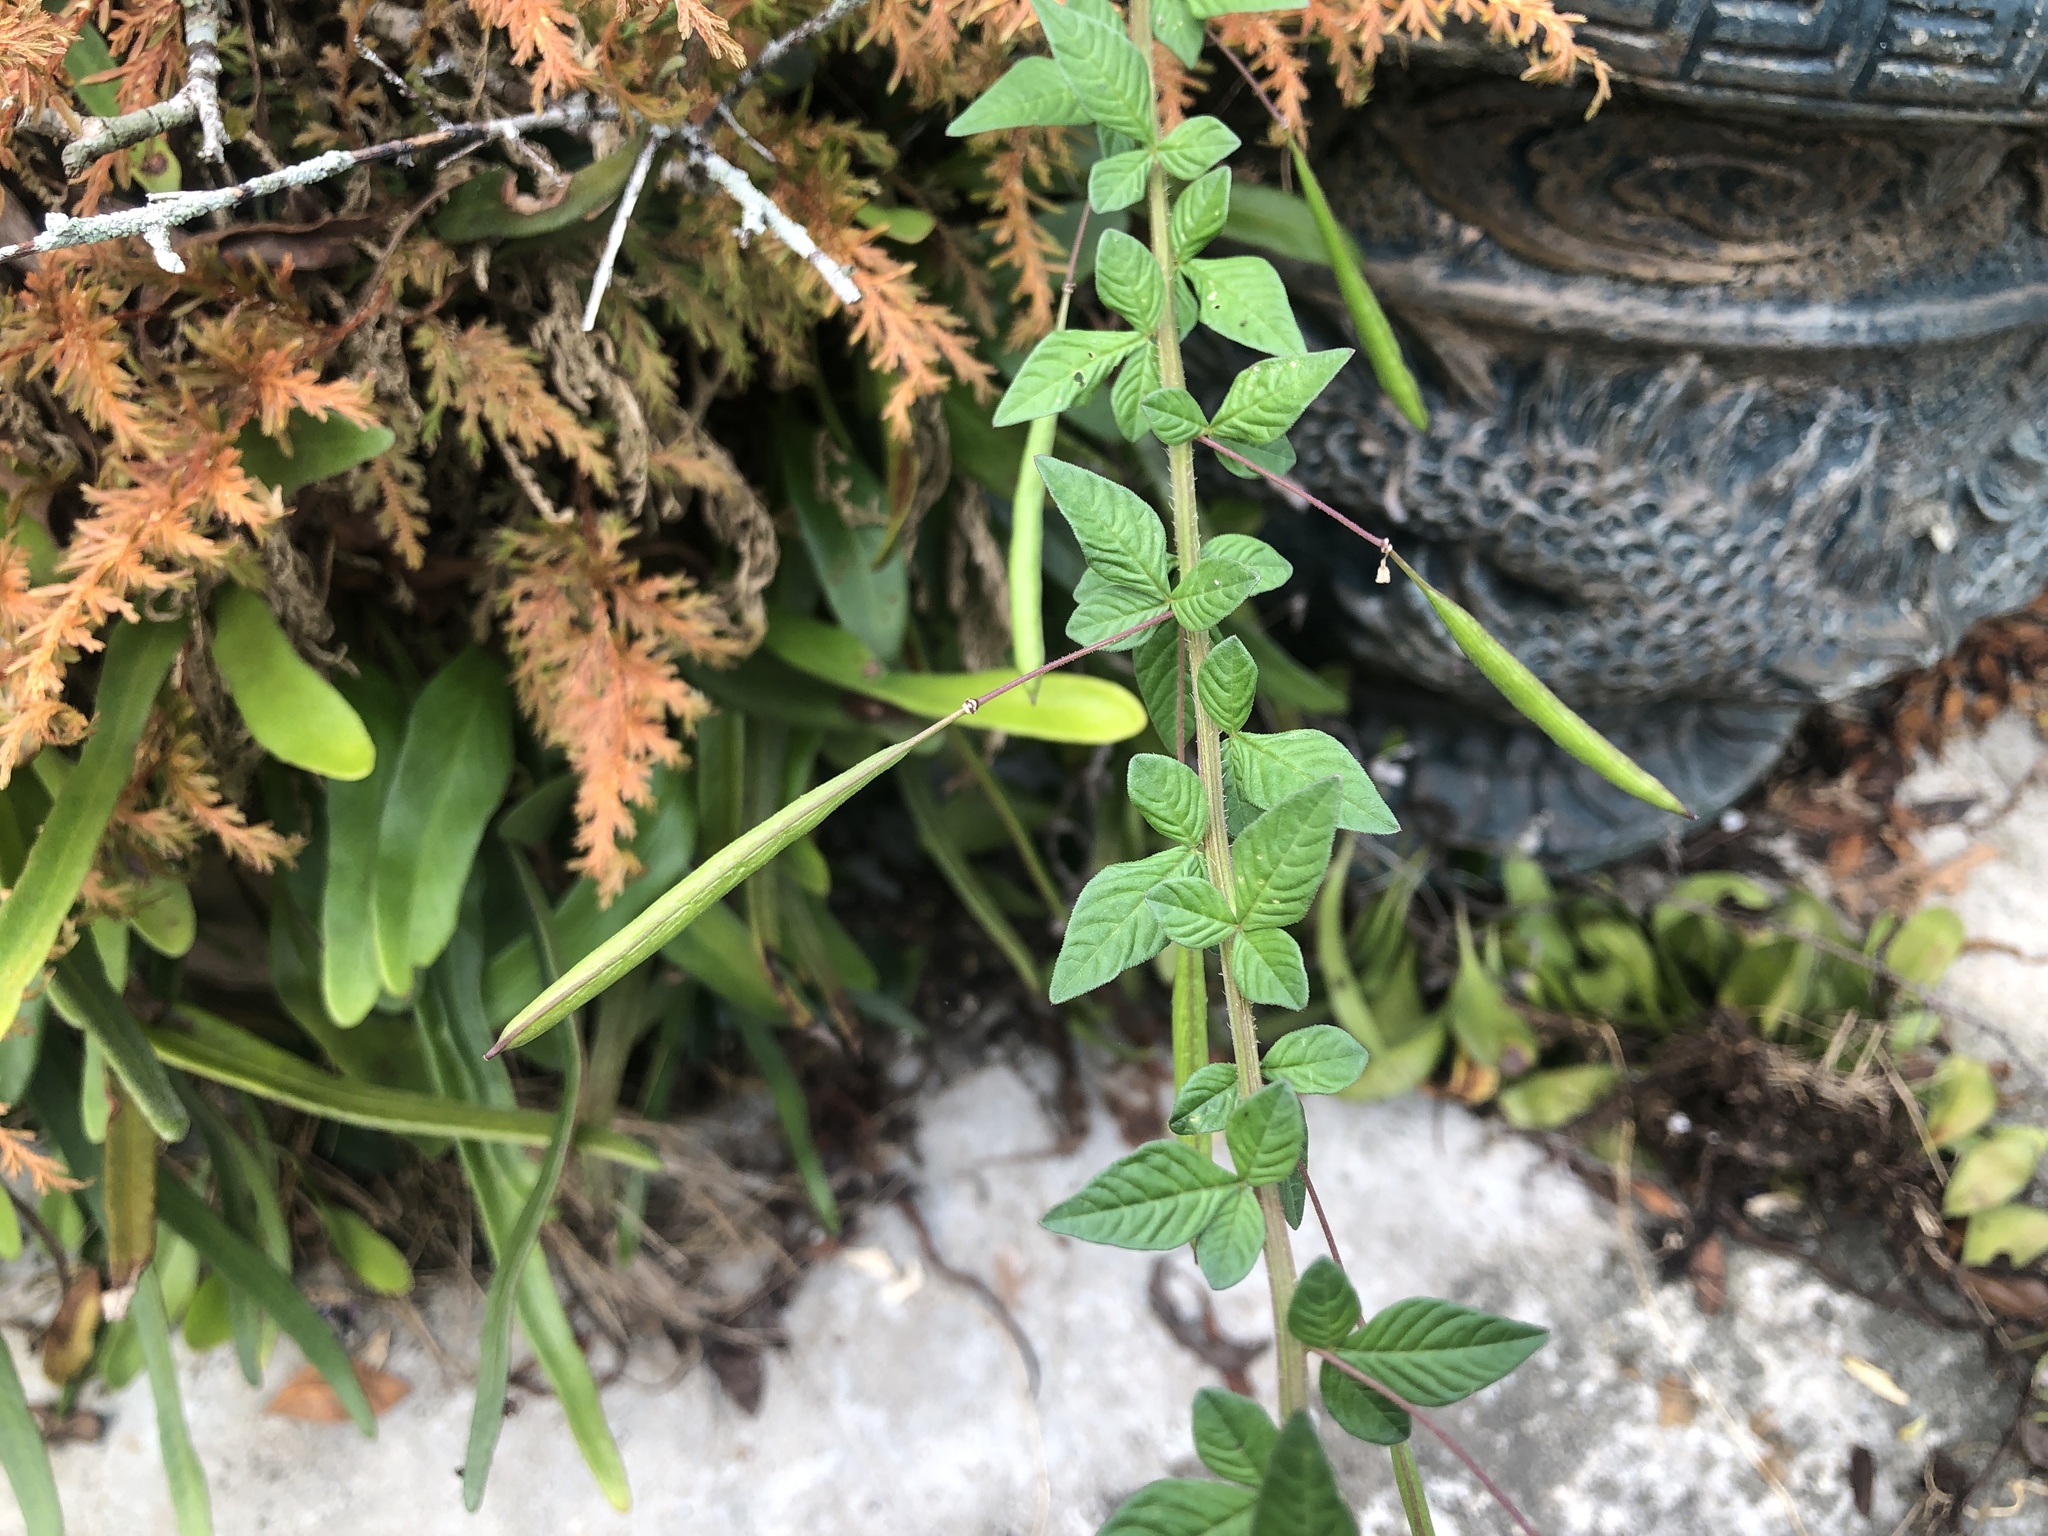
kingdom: Plantae
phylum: Tracheophyta
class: Magnoliopsida
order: Brassicales
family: Cleomaceae
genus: Sieruela
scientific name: Sieruela rutidosperma
